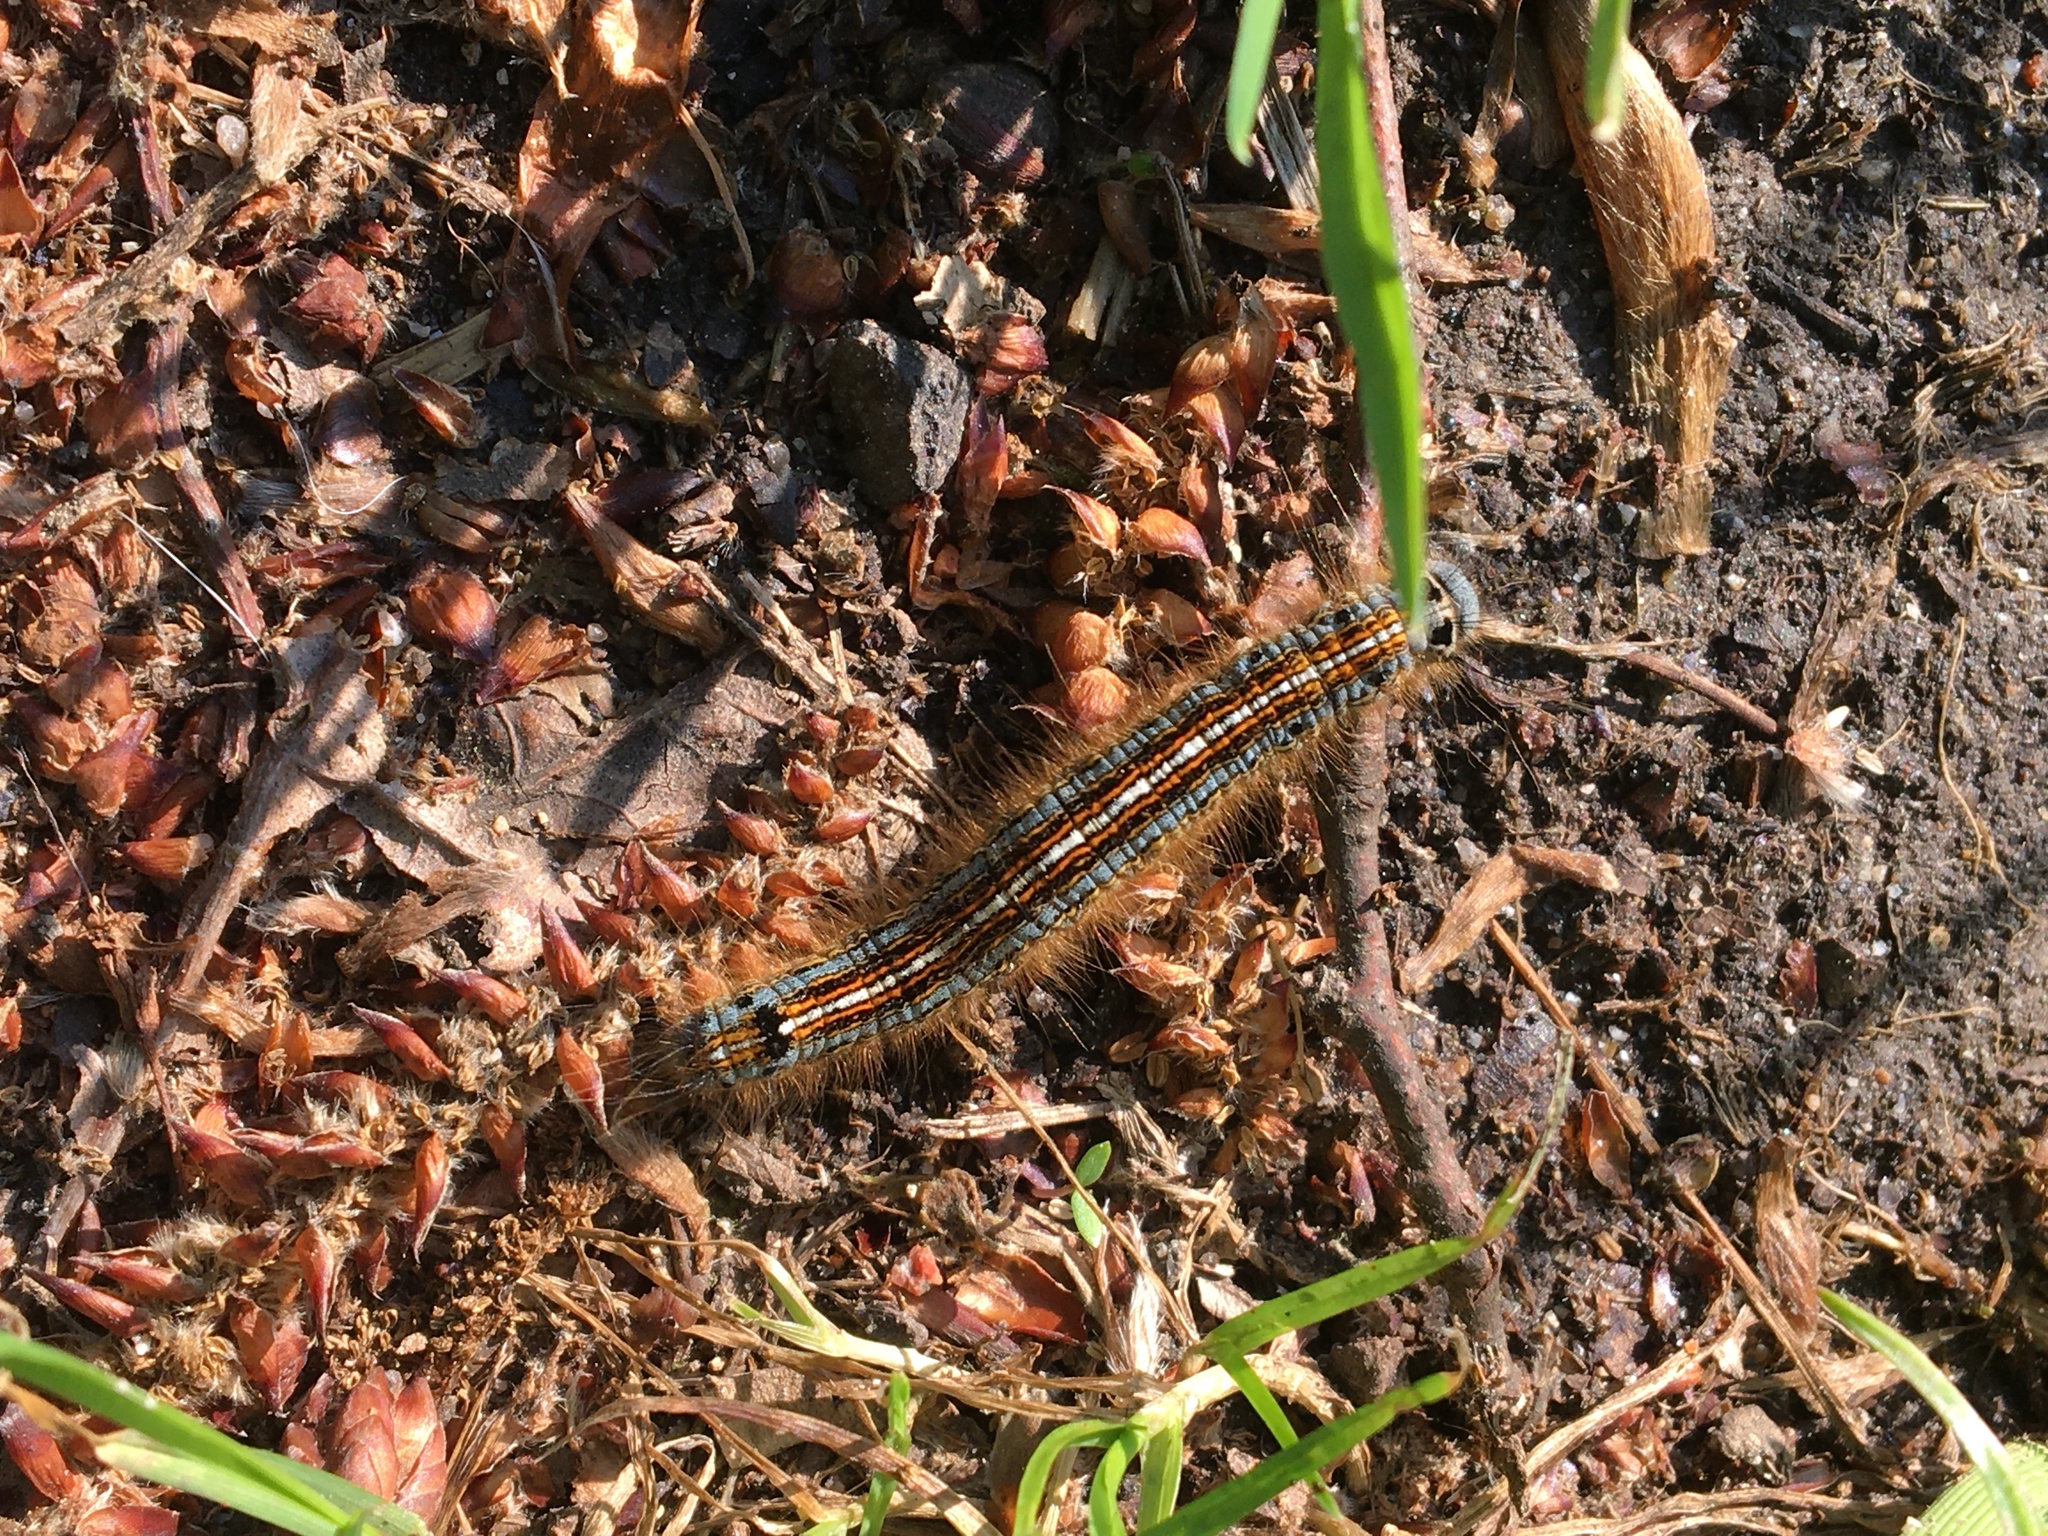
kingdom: Animalia
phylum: Arthropoda
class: Insecta
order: Lepidoptera
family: Lasiocampidae
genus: Malacosoma
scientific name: Malacosoma neustria
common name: The lackey
